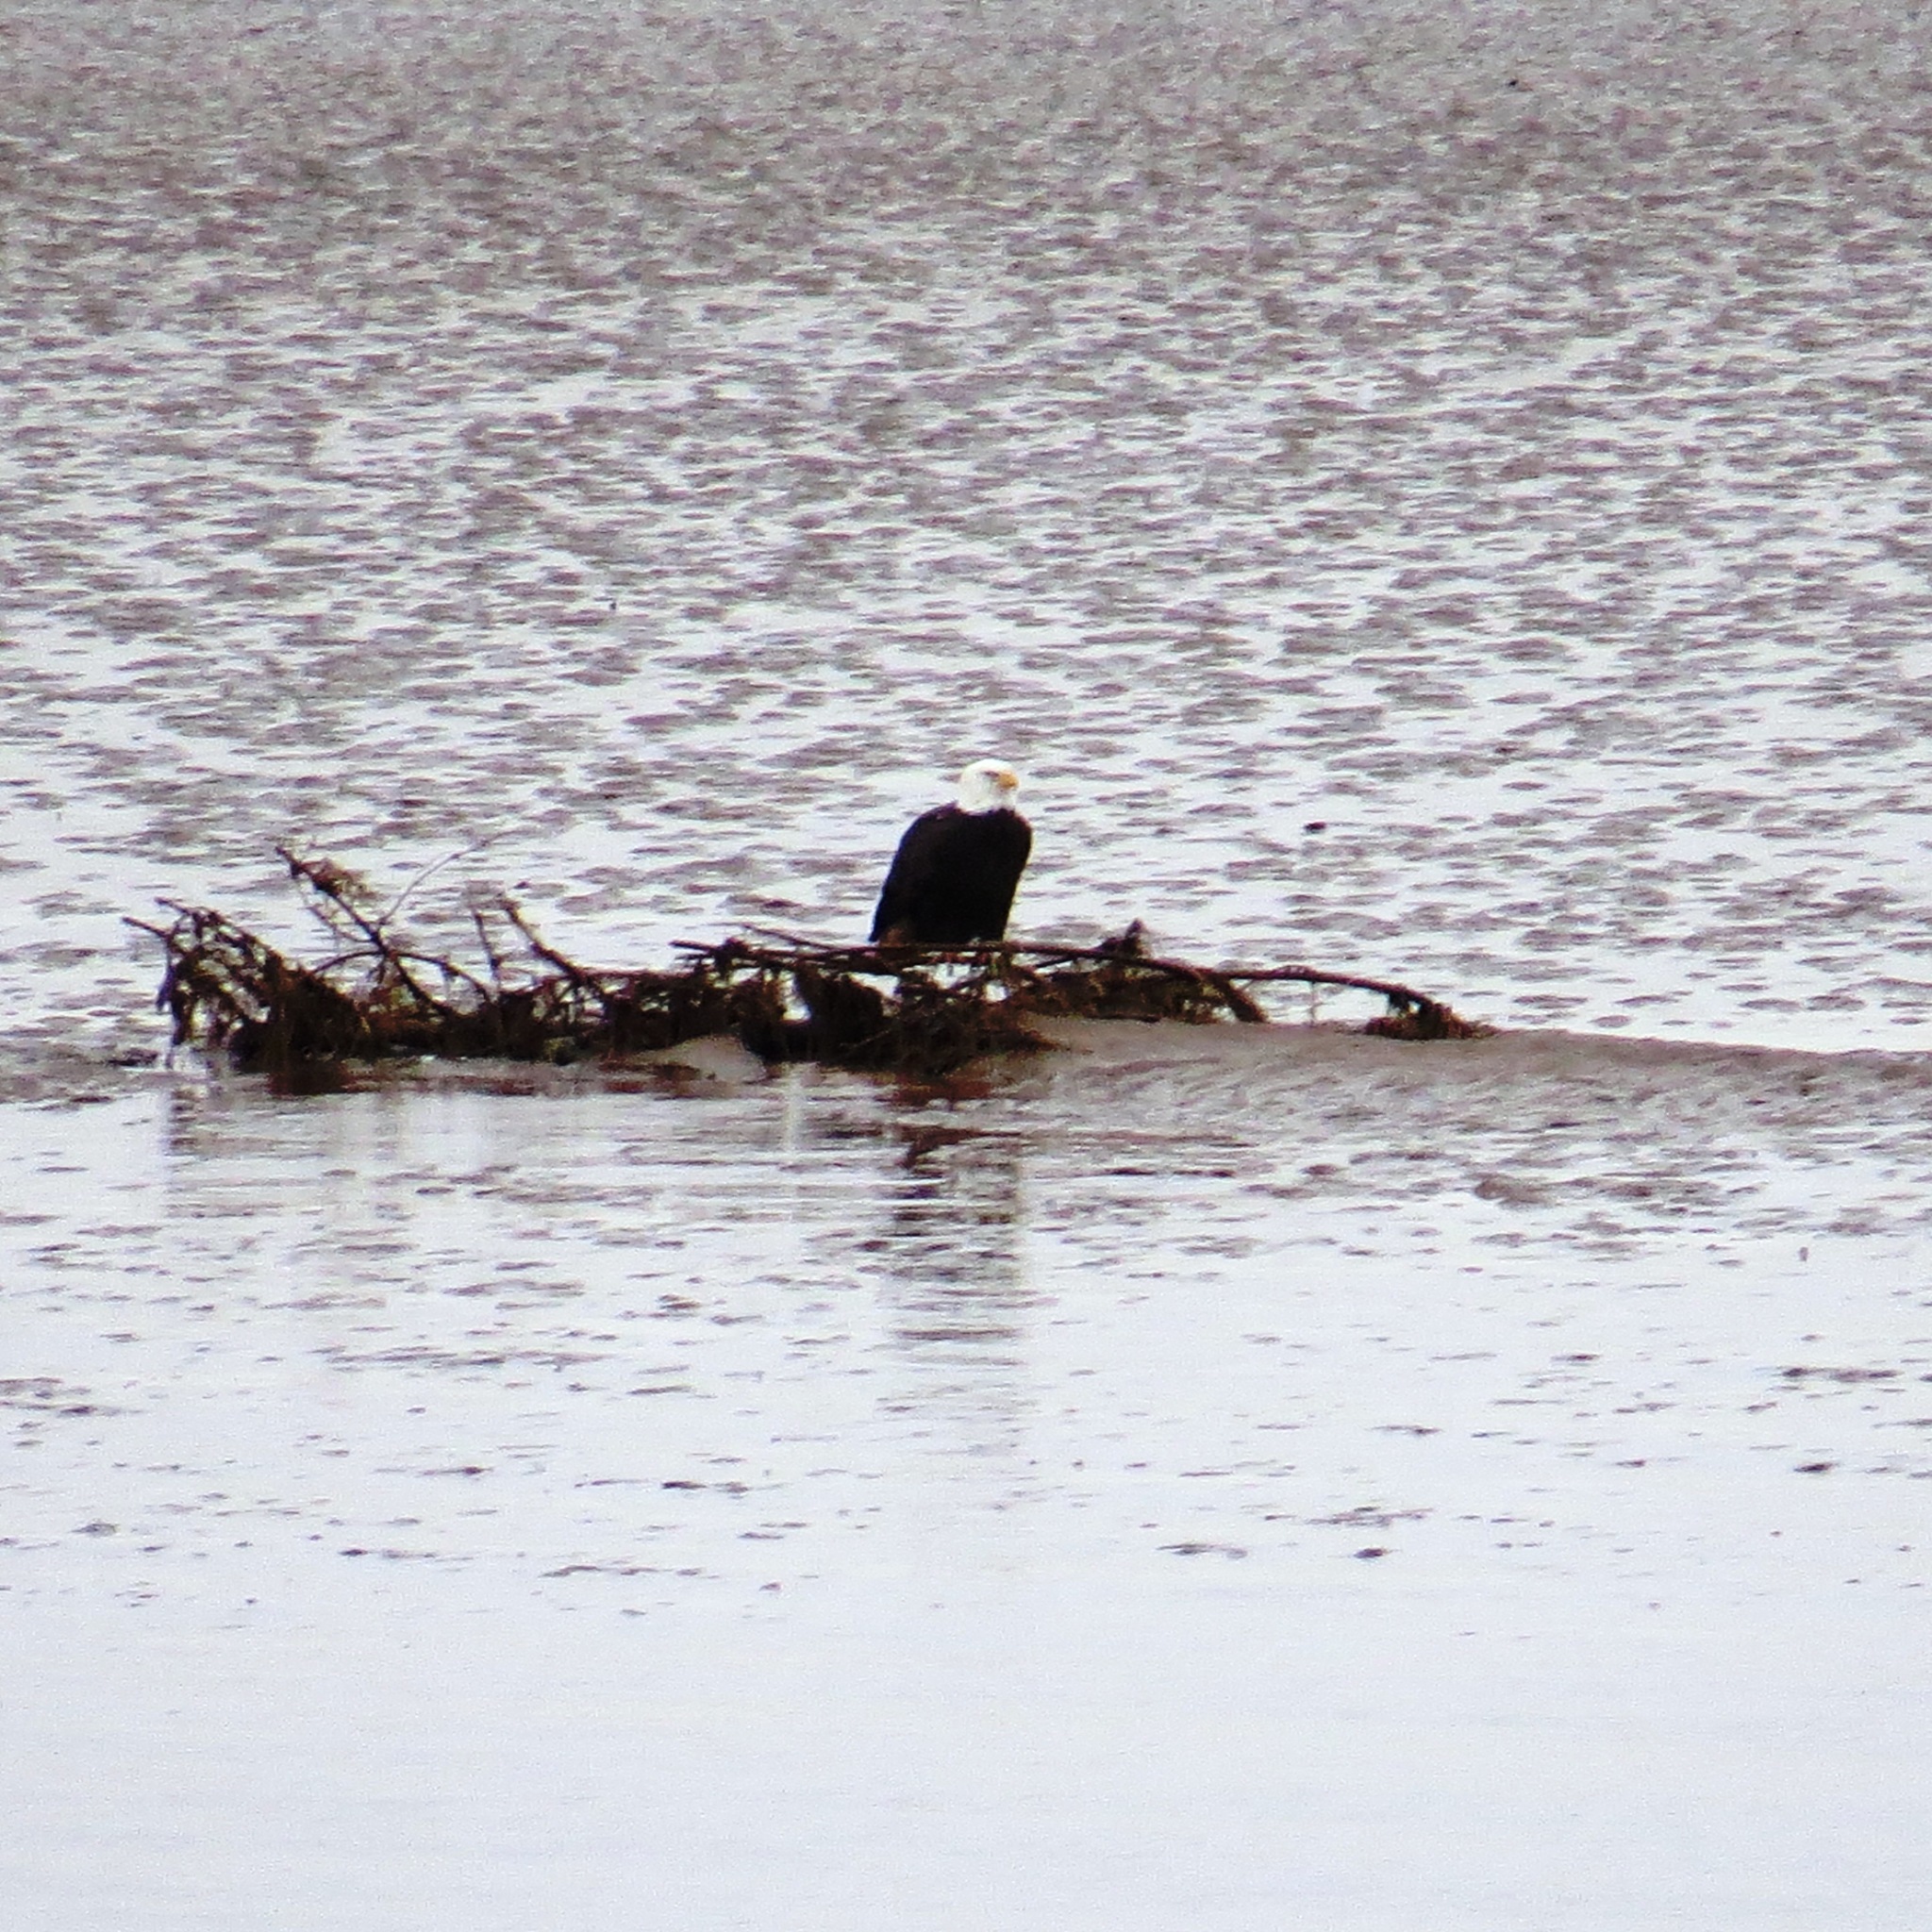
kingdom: Animalia
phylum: Chordata
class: Aves
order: Accipitriformes
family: Accipitridae
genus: Haliaeetus
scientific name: Haliaeetus leucocephalus
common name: Bald eagle
